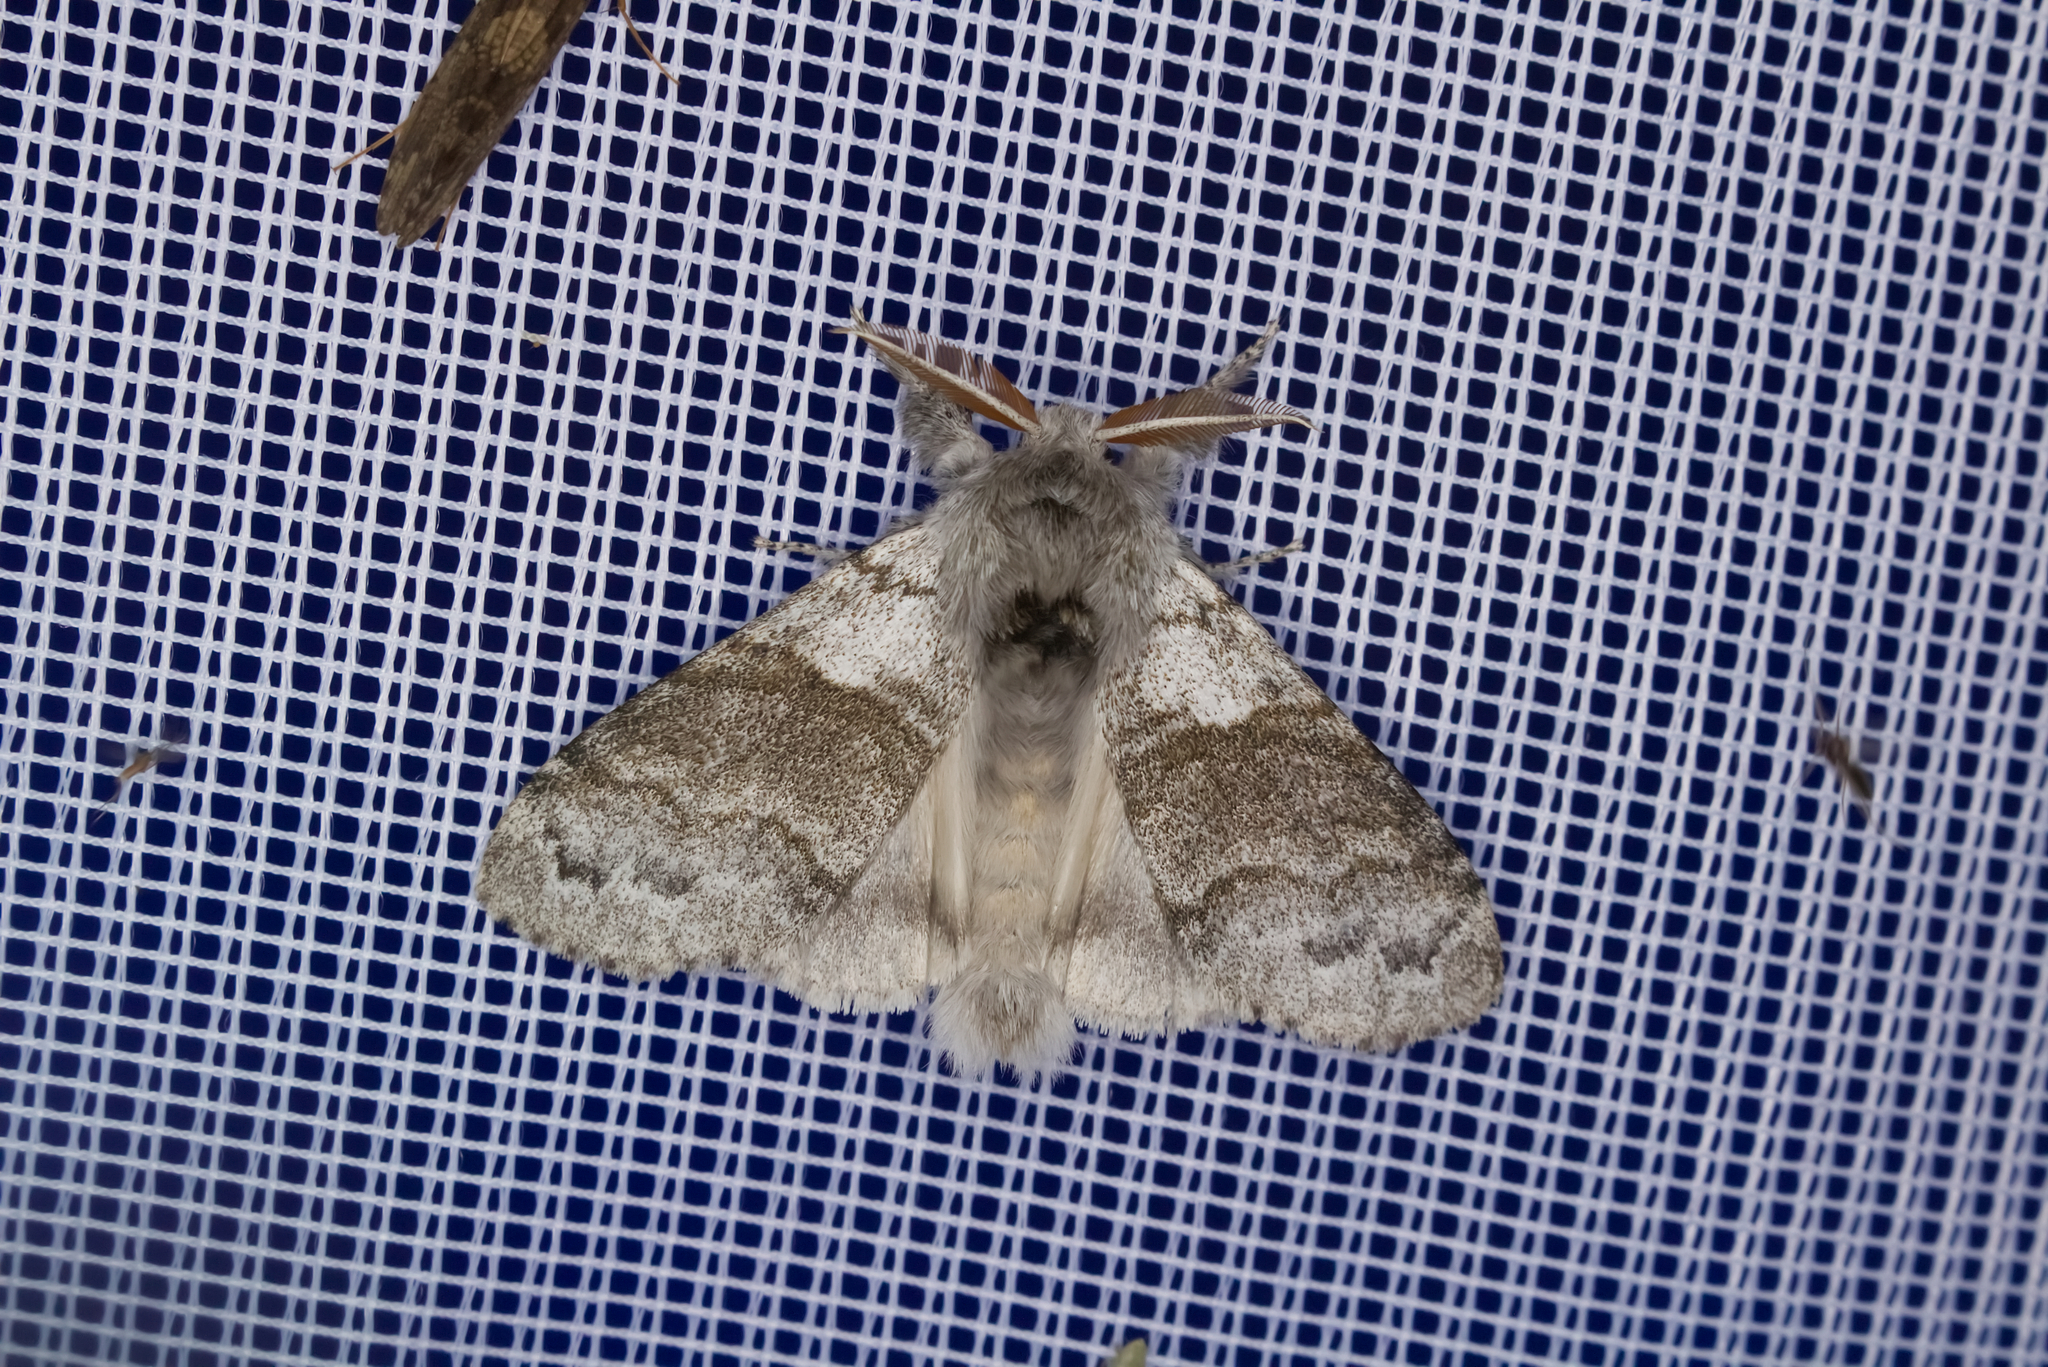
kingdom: Animalia
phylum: Arthropoda
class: Insecta
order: Lepidoptera
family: Erebidae
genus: Calliteara
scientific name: Calliteara pudibunda
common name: Pale tussock
